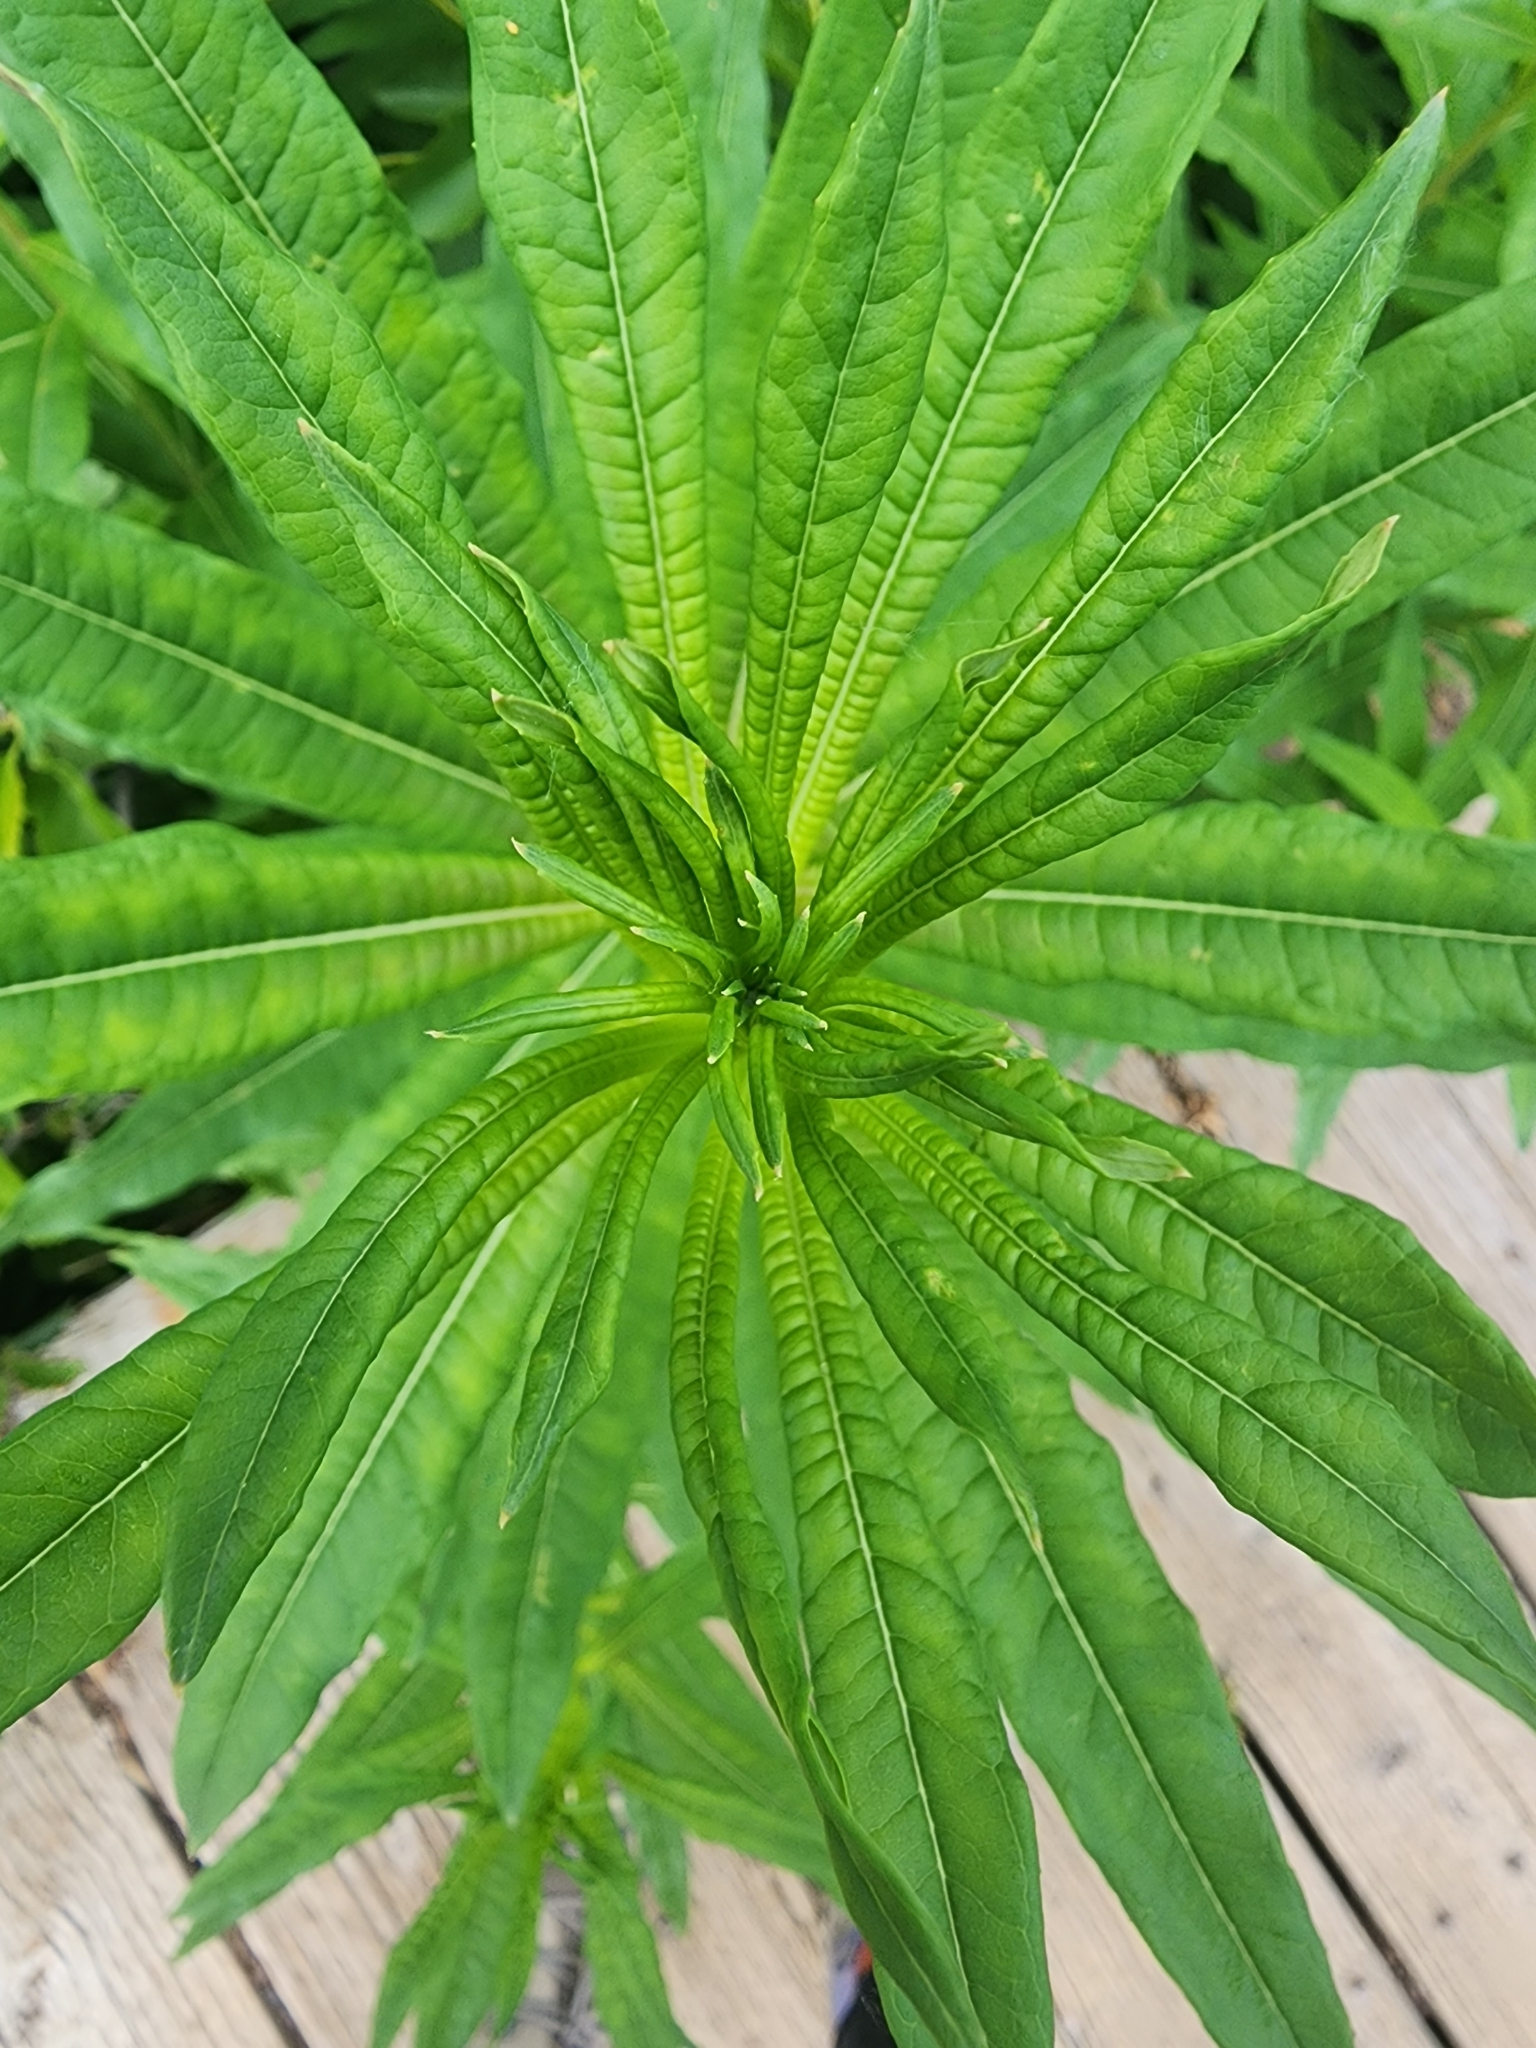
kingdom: Plantae
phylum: Tracheophyta
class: Magnoliopsida
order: Myrtales
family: Onagraceae
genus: Chamaenerion
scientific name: Chamaenerion angustifolium
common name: Fireweed
